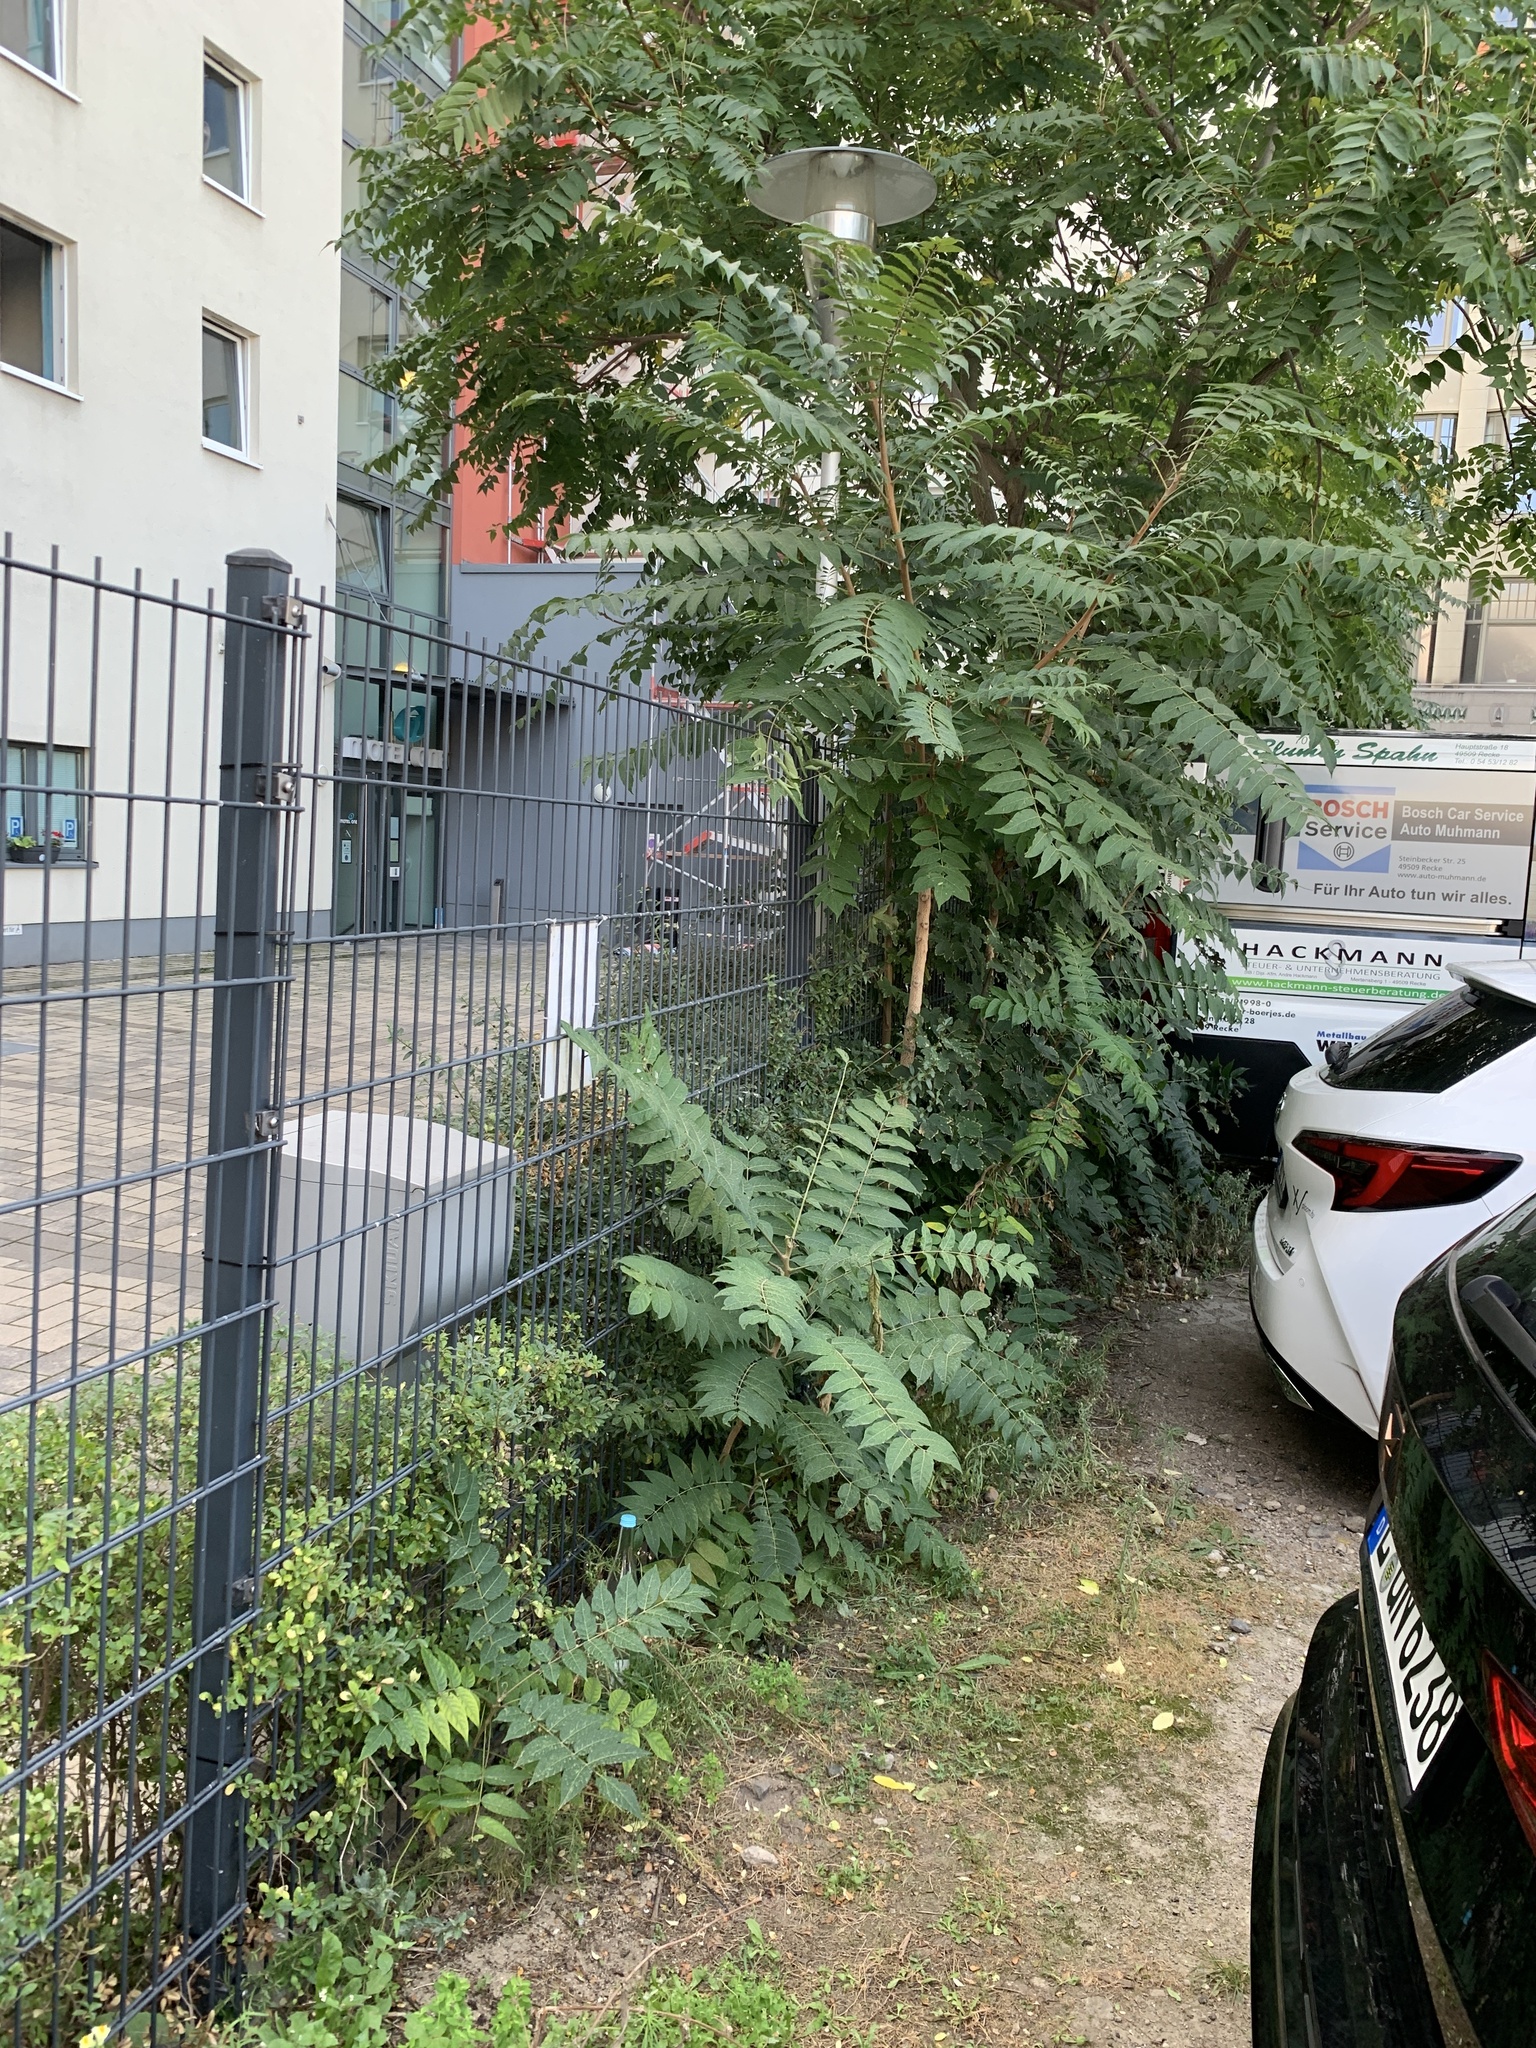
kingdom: Plantae
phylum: Tracheophyta
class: Magnoliopsida
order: Sapindales
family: Simaroubaceae
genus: Ailanthus
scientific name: Ailanthus altissima
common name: Tree-of-heaven
